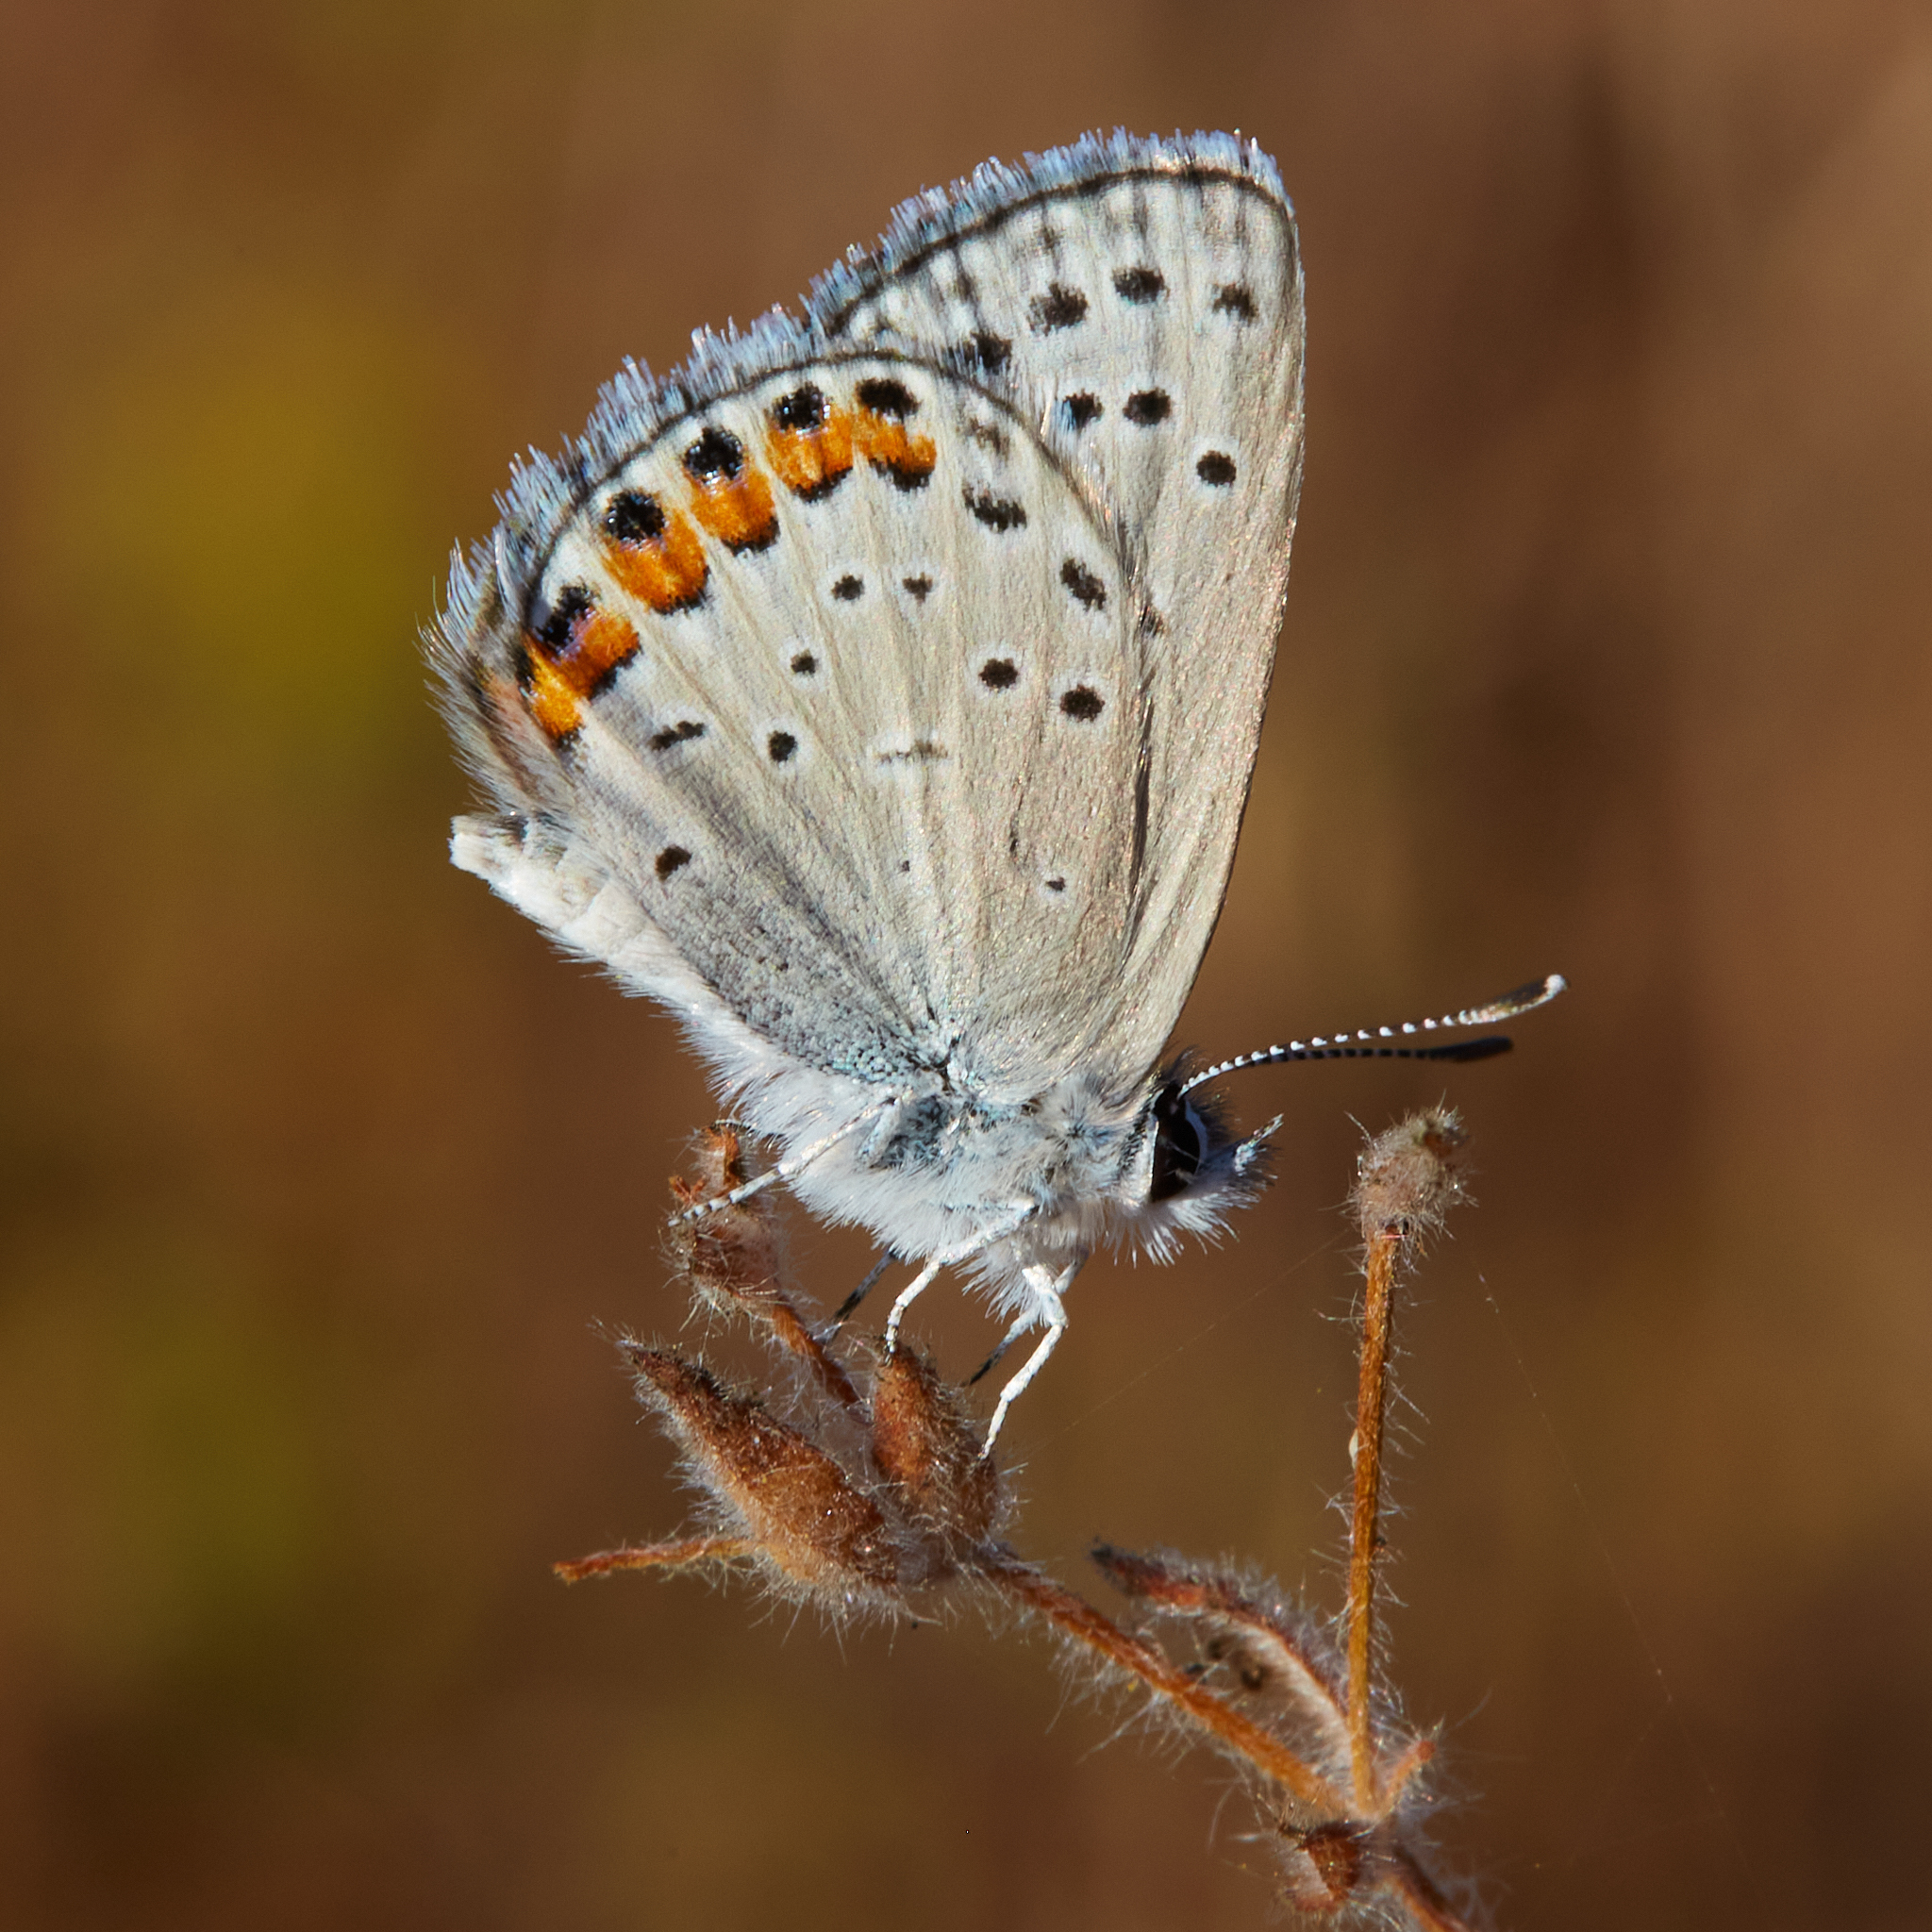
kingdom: Animalia
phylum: Arthropoda
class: Insecta
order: Lepidoptera
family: Lycaenidae
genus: Icaricia
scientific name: Icaricia acmon
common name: Acmon blue
